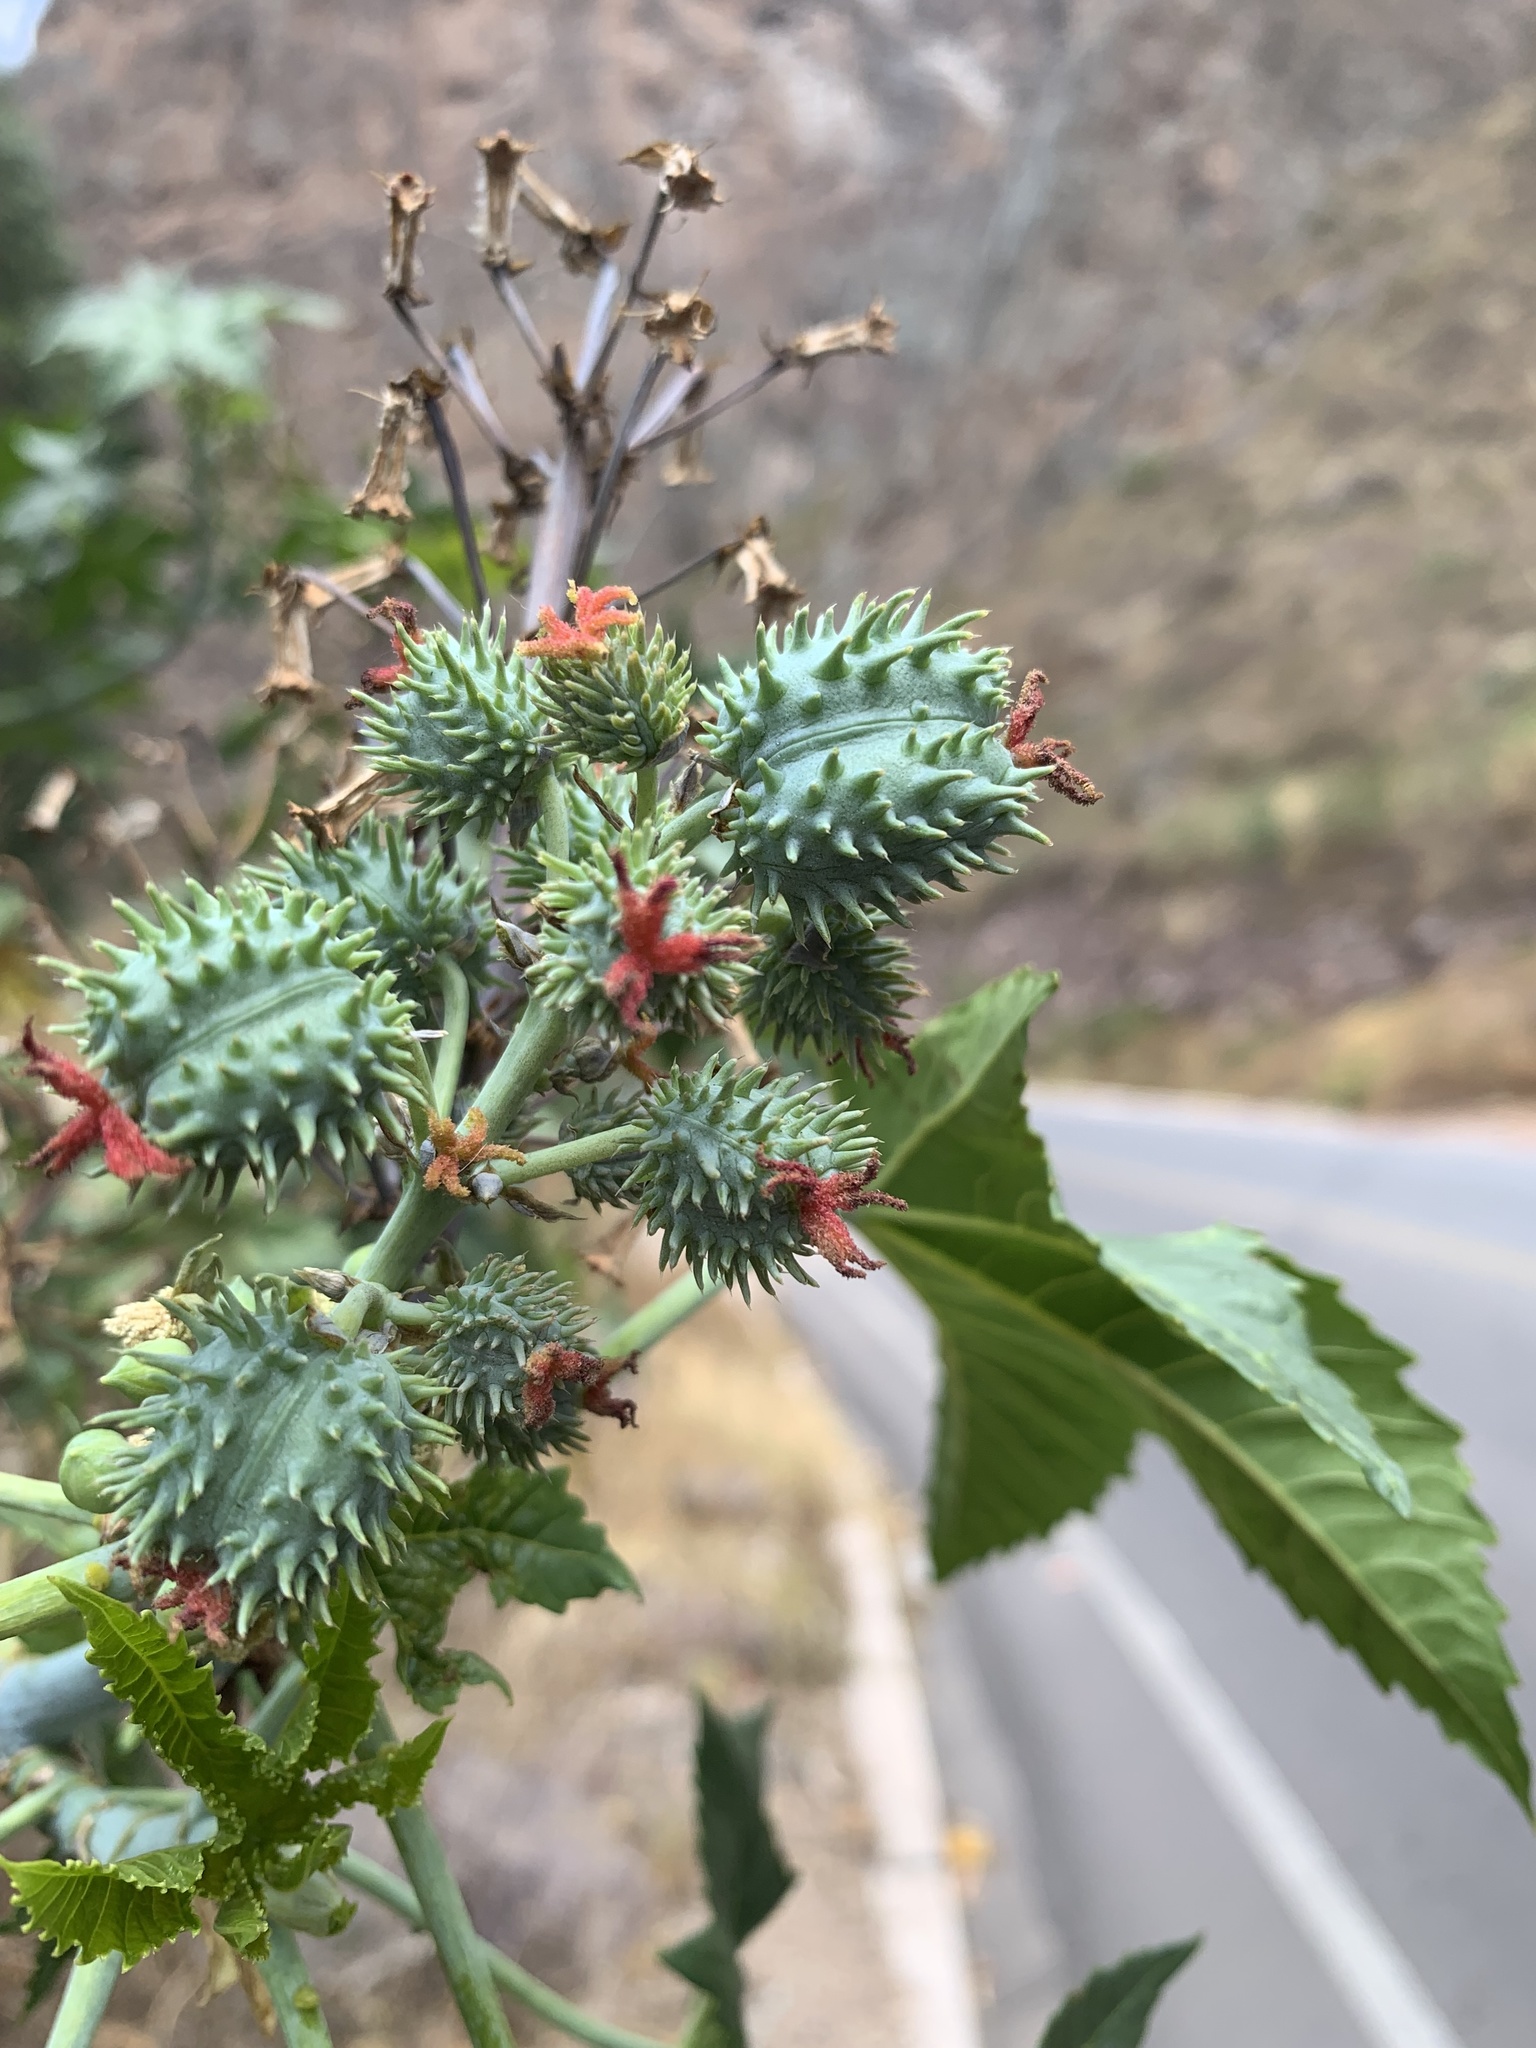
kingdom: Plantae
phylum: Tracheophyta
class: Magnoliopsida
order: Malpighiales
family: Euphorbiaceae
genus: Ricinus
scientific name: Ricinus communis
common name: Castor-oil-plant
